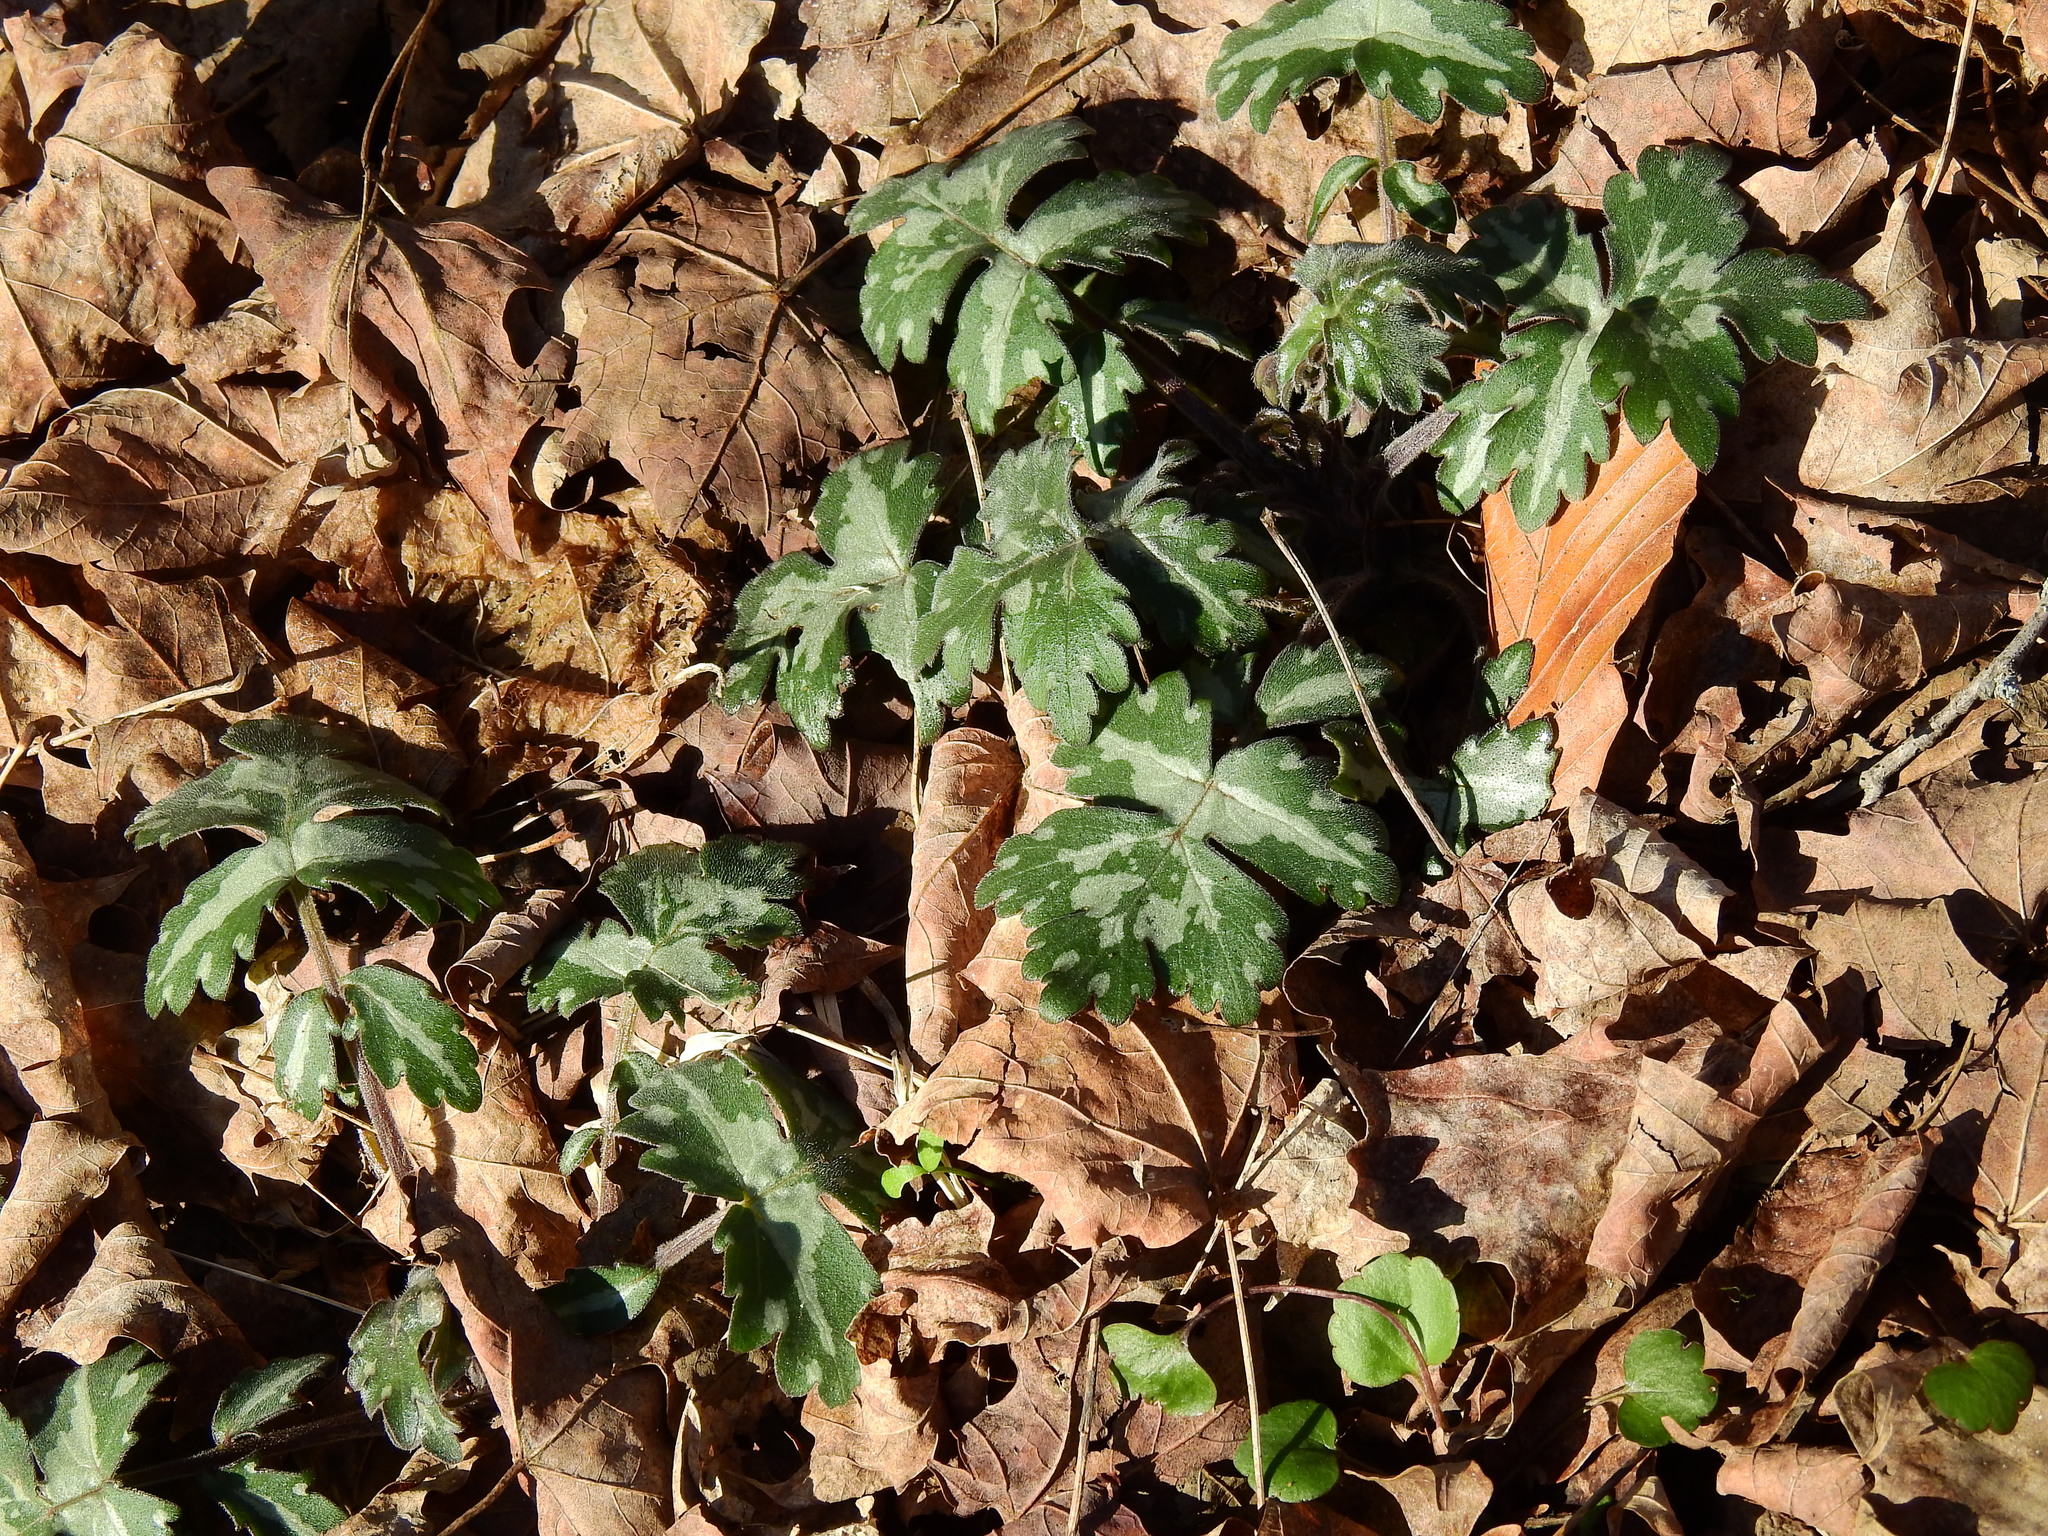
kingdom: Plantae
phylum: Tracheophyta
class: Magnoliopsida
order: Boraginales
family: Hydrophyllaceae
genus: Hydrophyllum
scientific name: Hydrophyllum appendiculatum
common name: Appendaged waterleaf
